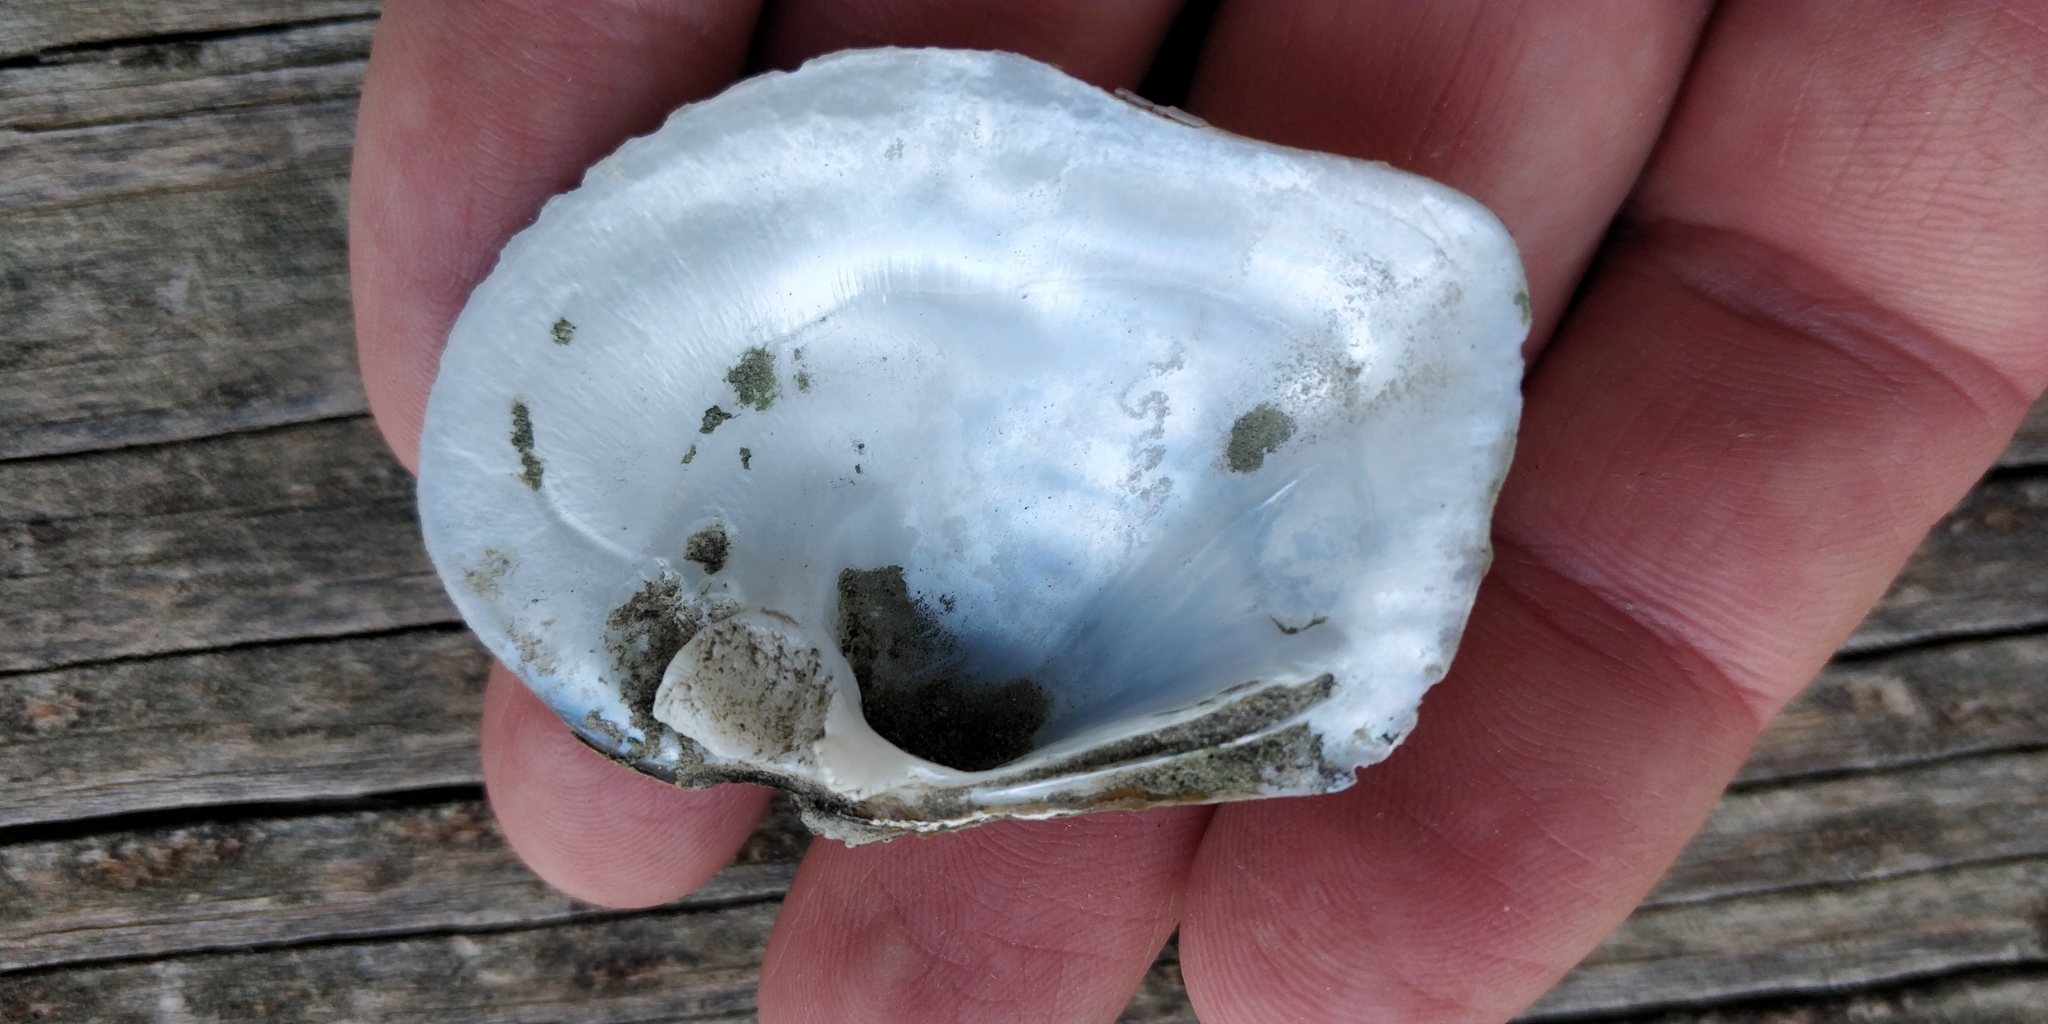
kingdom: Animalia
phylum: Mollusca
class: Bivalvia
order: Unionida
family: Unionidae
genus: Quadrula
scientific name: Quadrula quadrula
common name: Mapleleaf
